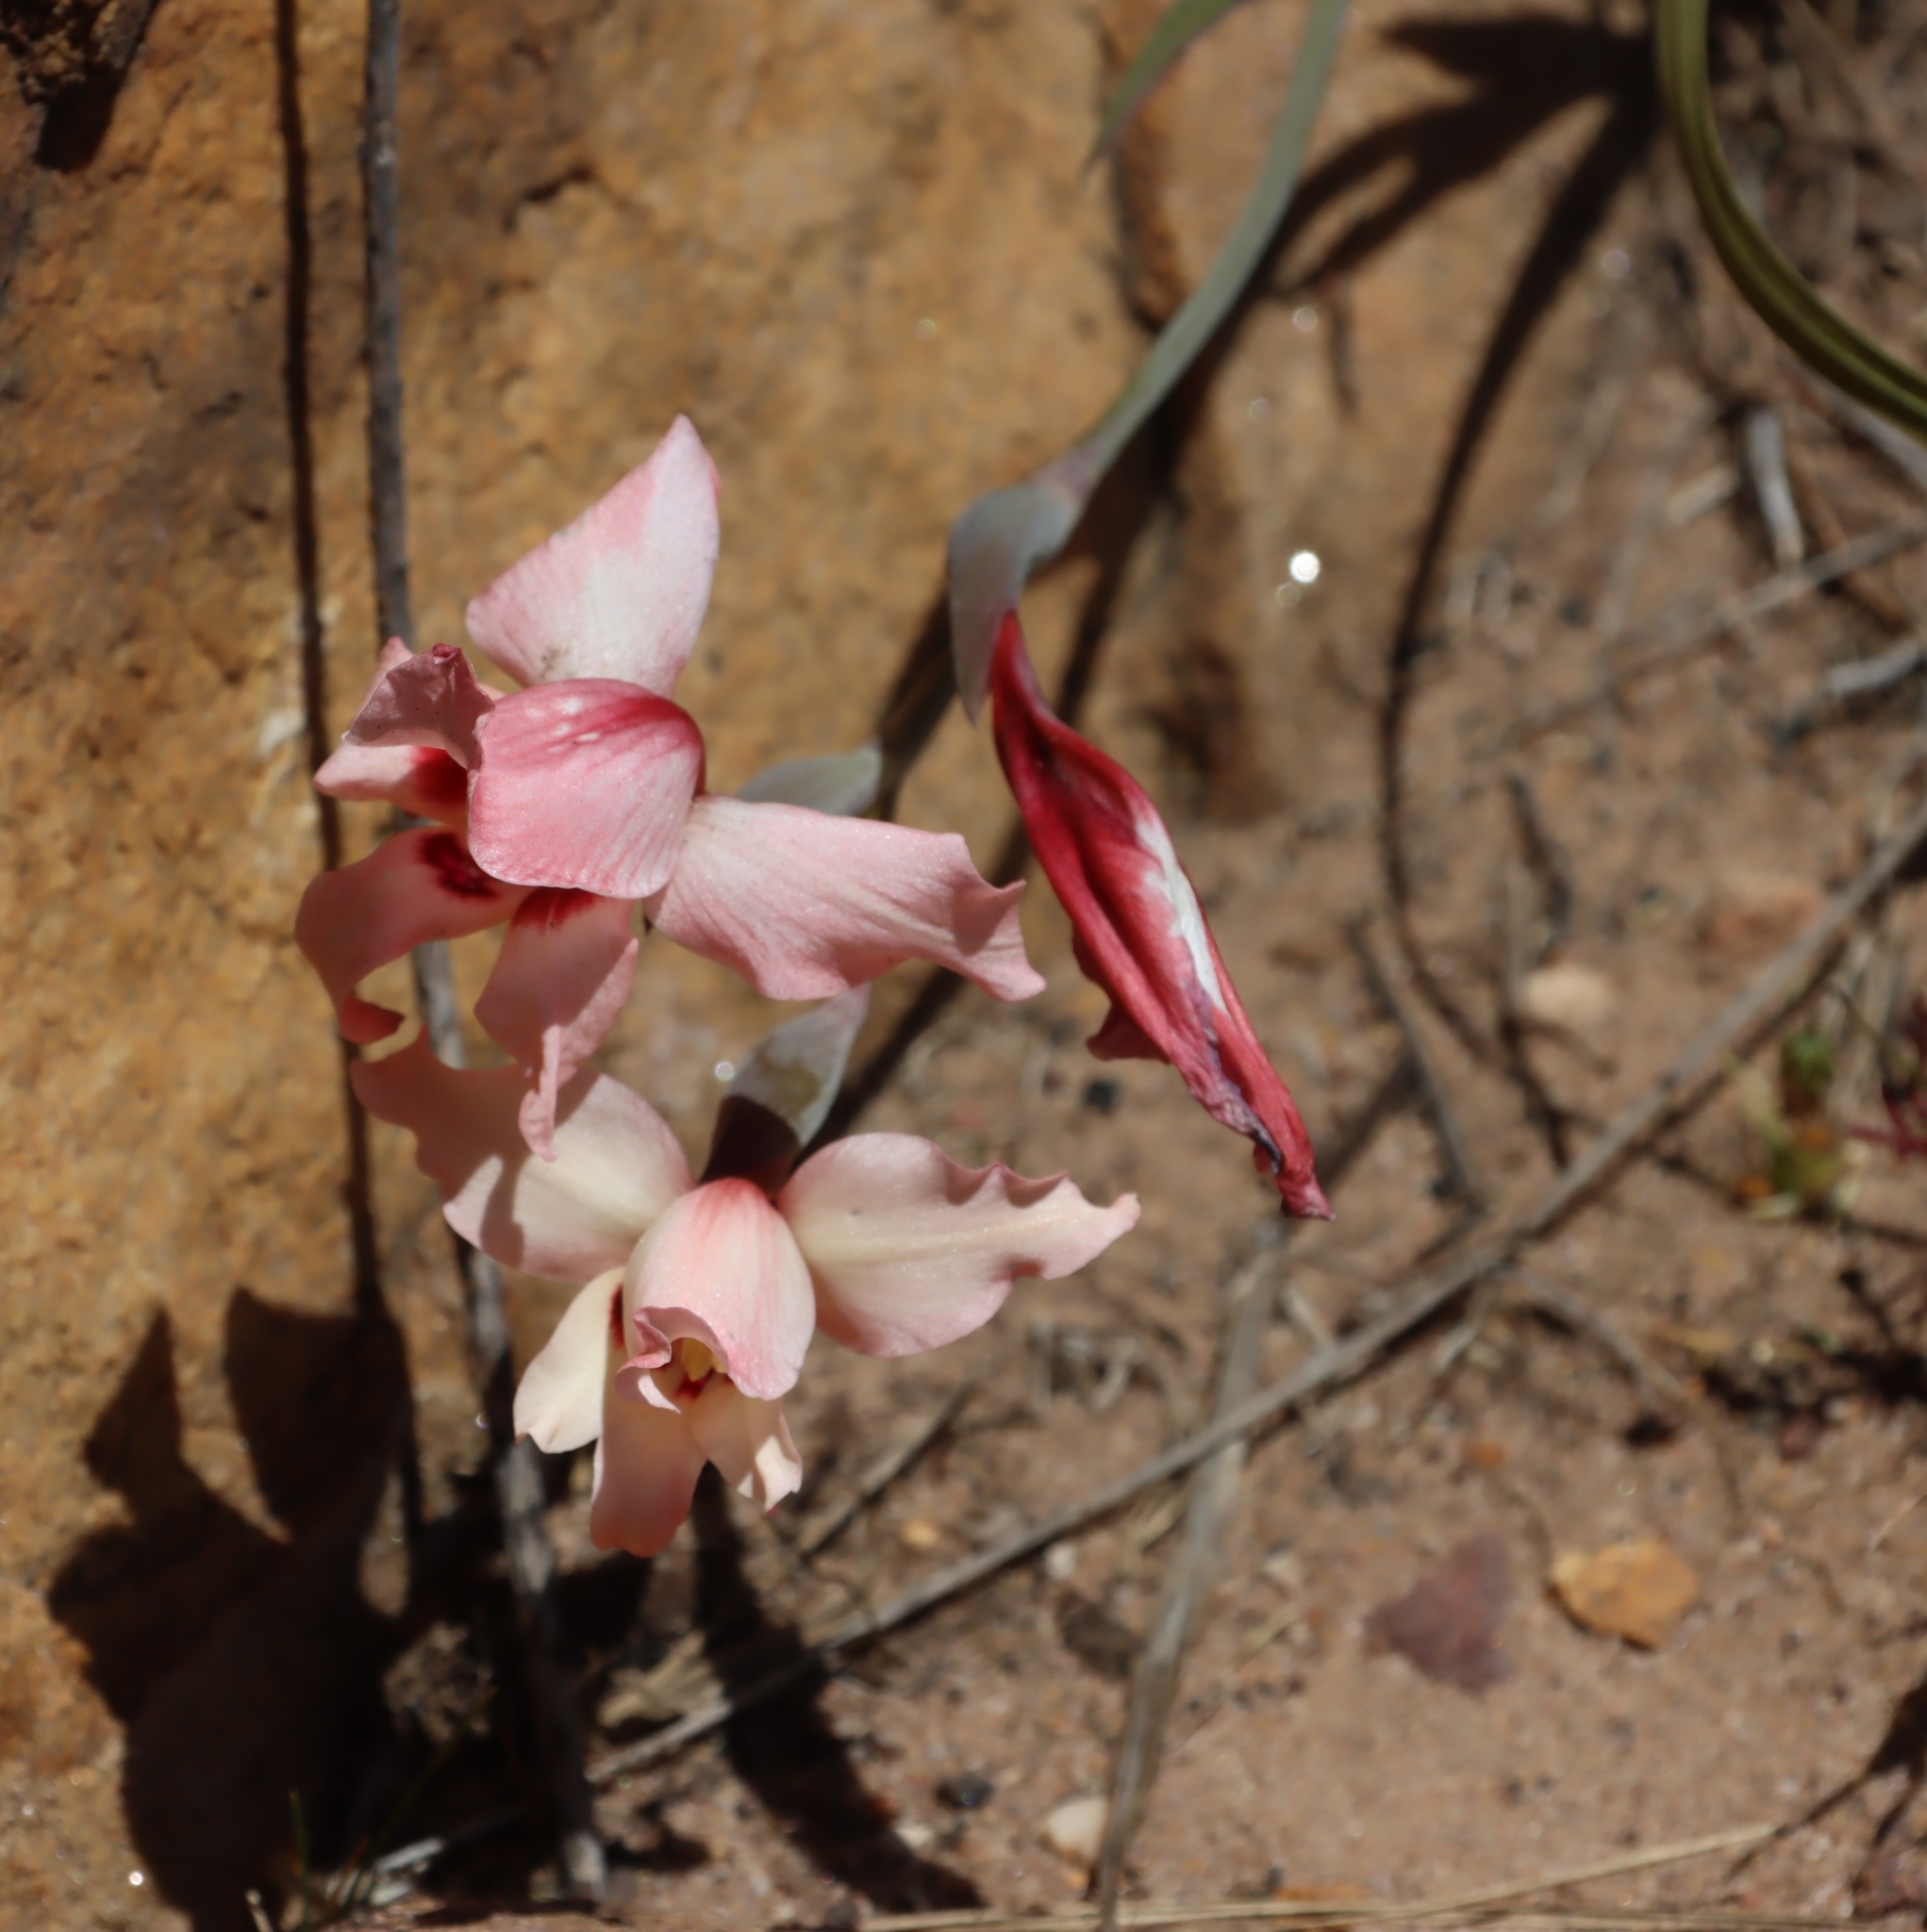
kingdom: Plantae
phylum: Tracheophyta
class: Liliopsida
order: Asparagales
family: Iridaceae
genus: Gladiolus
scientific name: Gladiolus carneus
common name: Painted-lady
